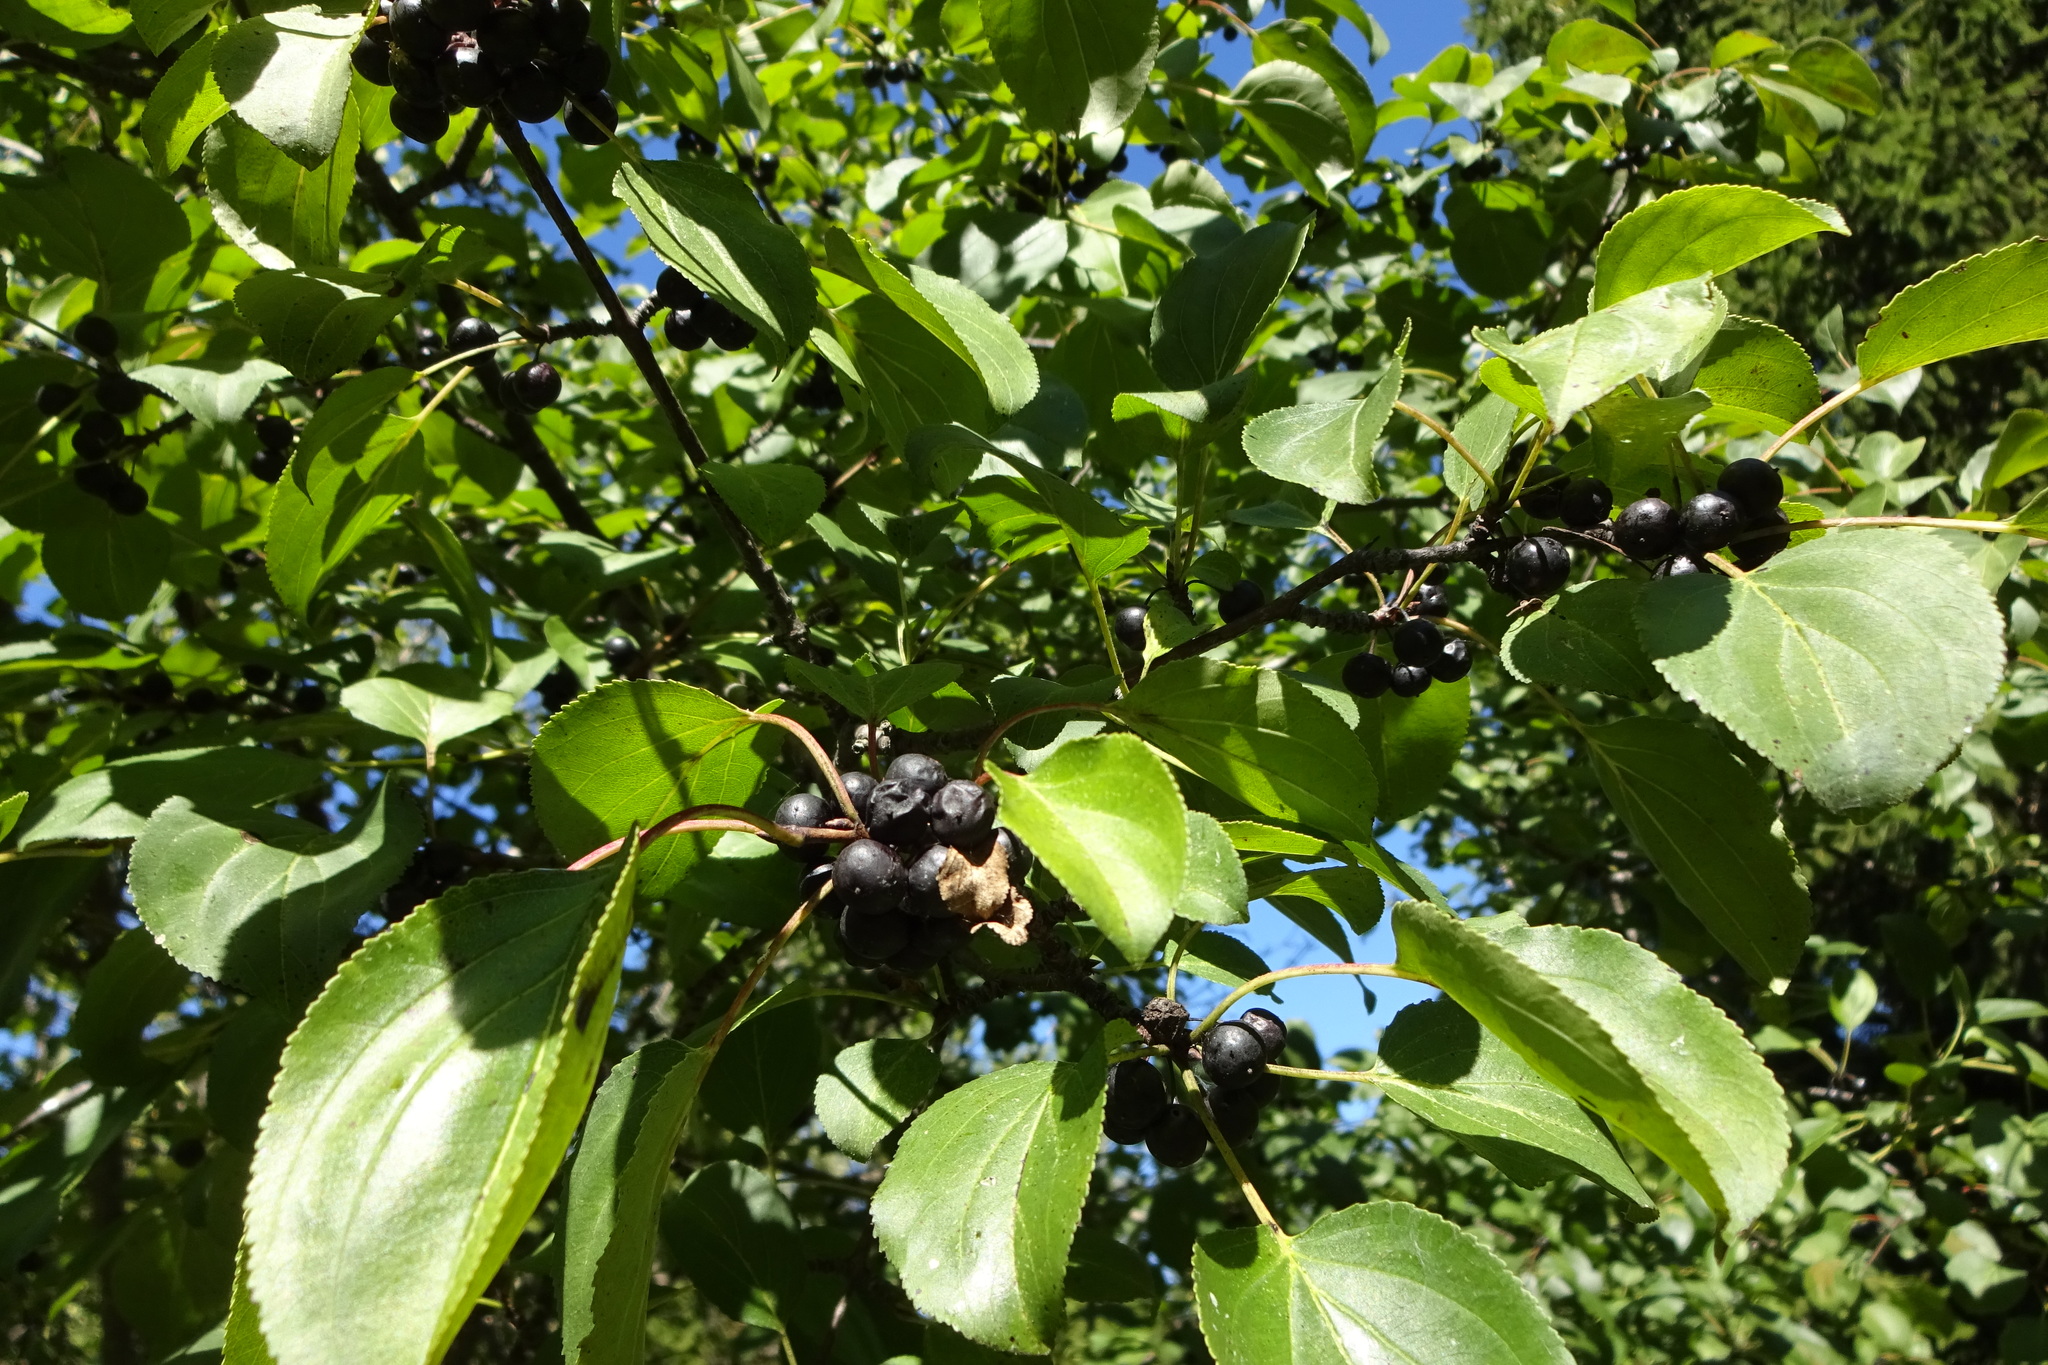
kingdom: Plantae
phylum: Tracheophyta
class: Magnoliopsida
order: Rosales
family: Rhamnaceae
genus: Rhamnus
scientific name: Rhamnus cathartica
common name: Common buckthorn
